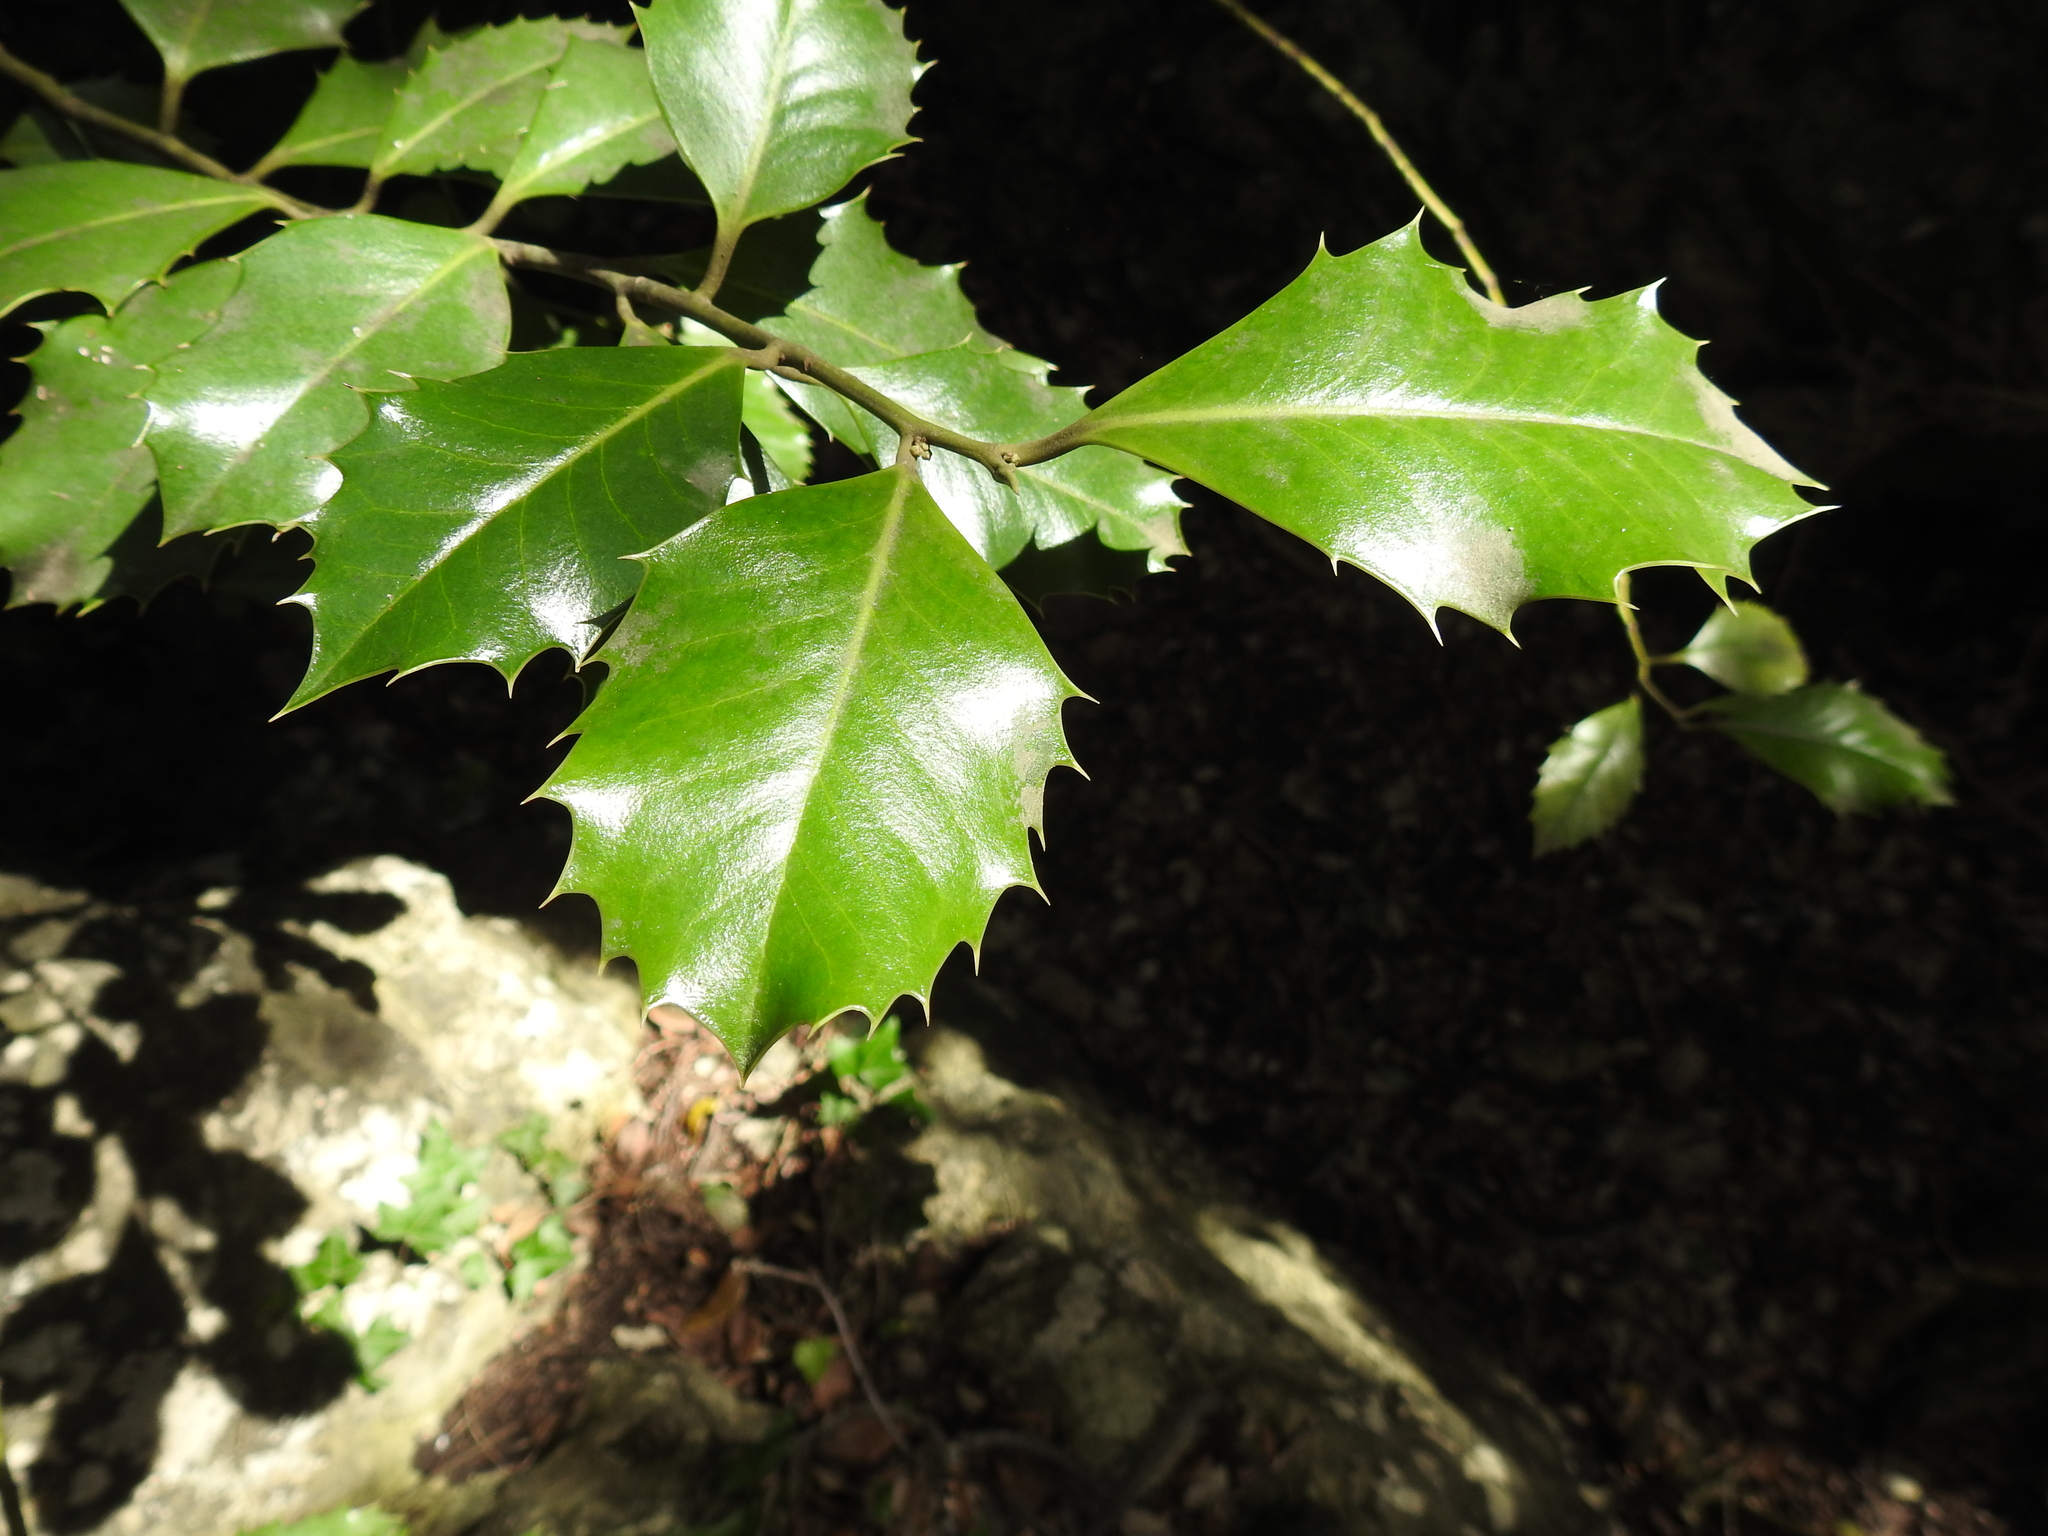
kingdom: Plantae
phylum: Tracheophyta
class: Magnoliopsida
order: Aquifoliales
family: Aquifoliaceae
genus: Ilex
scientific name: Ilex aquifolium
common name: English holly
